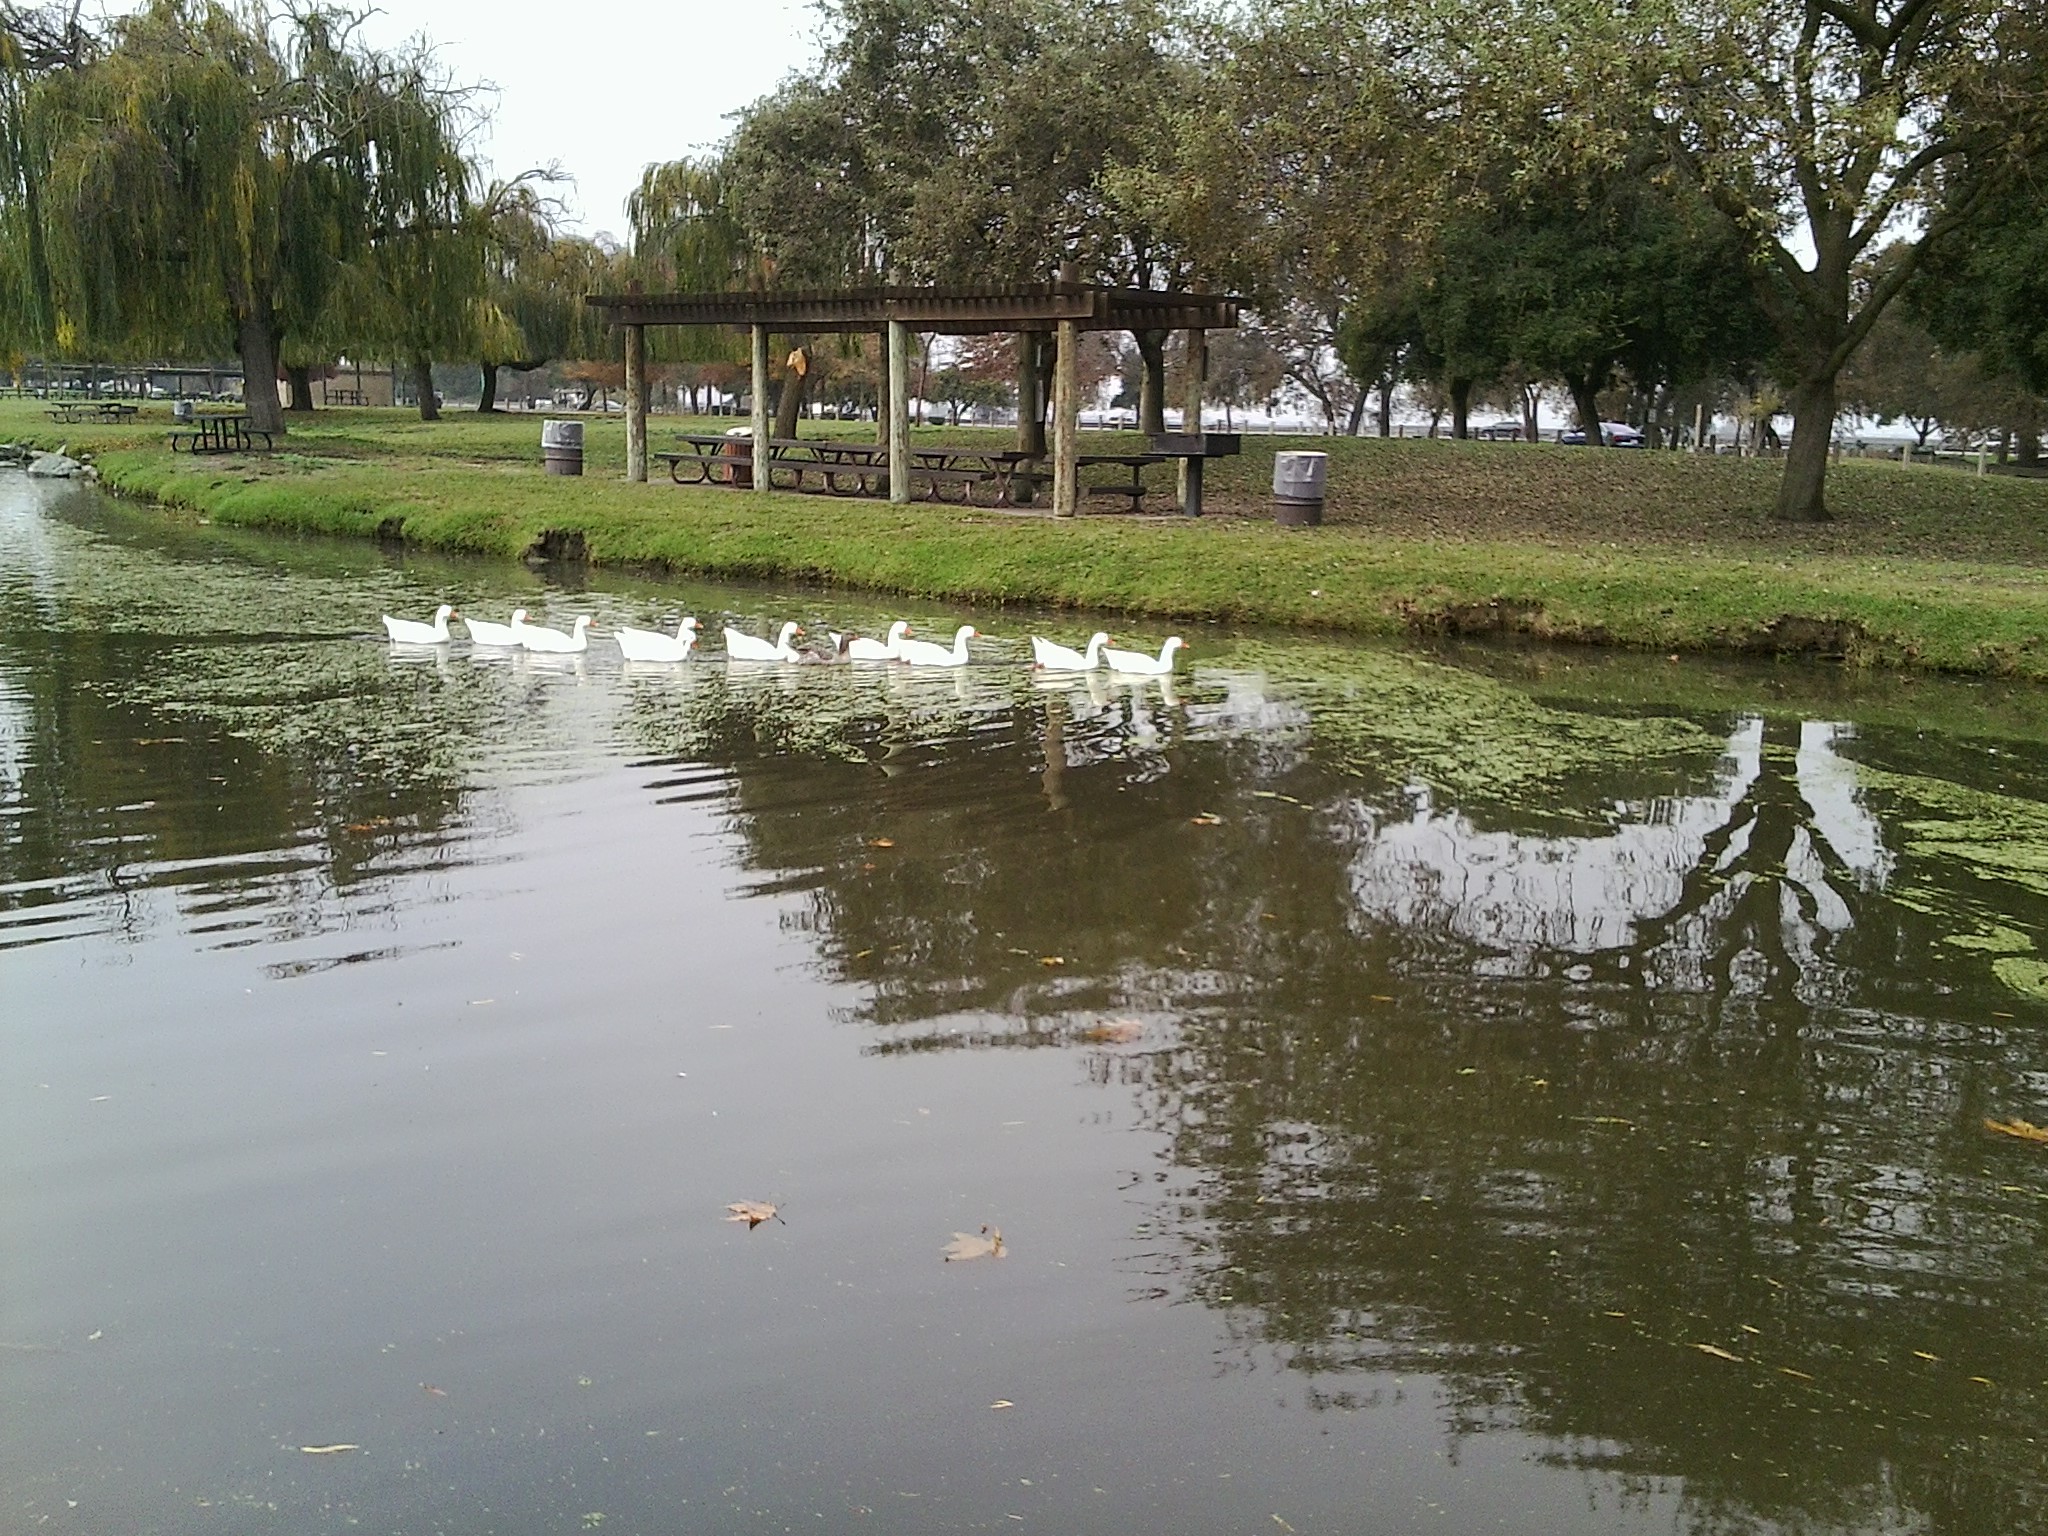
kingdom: Animalia
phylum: Chordata
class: Aves
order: Anseriformes
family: Anatidae
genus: Anser
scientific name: Anser cygnoides
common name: Swan goose
